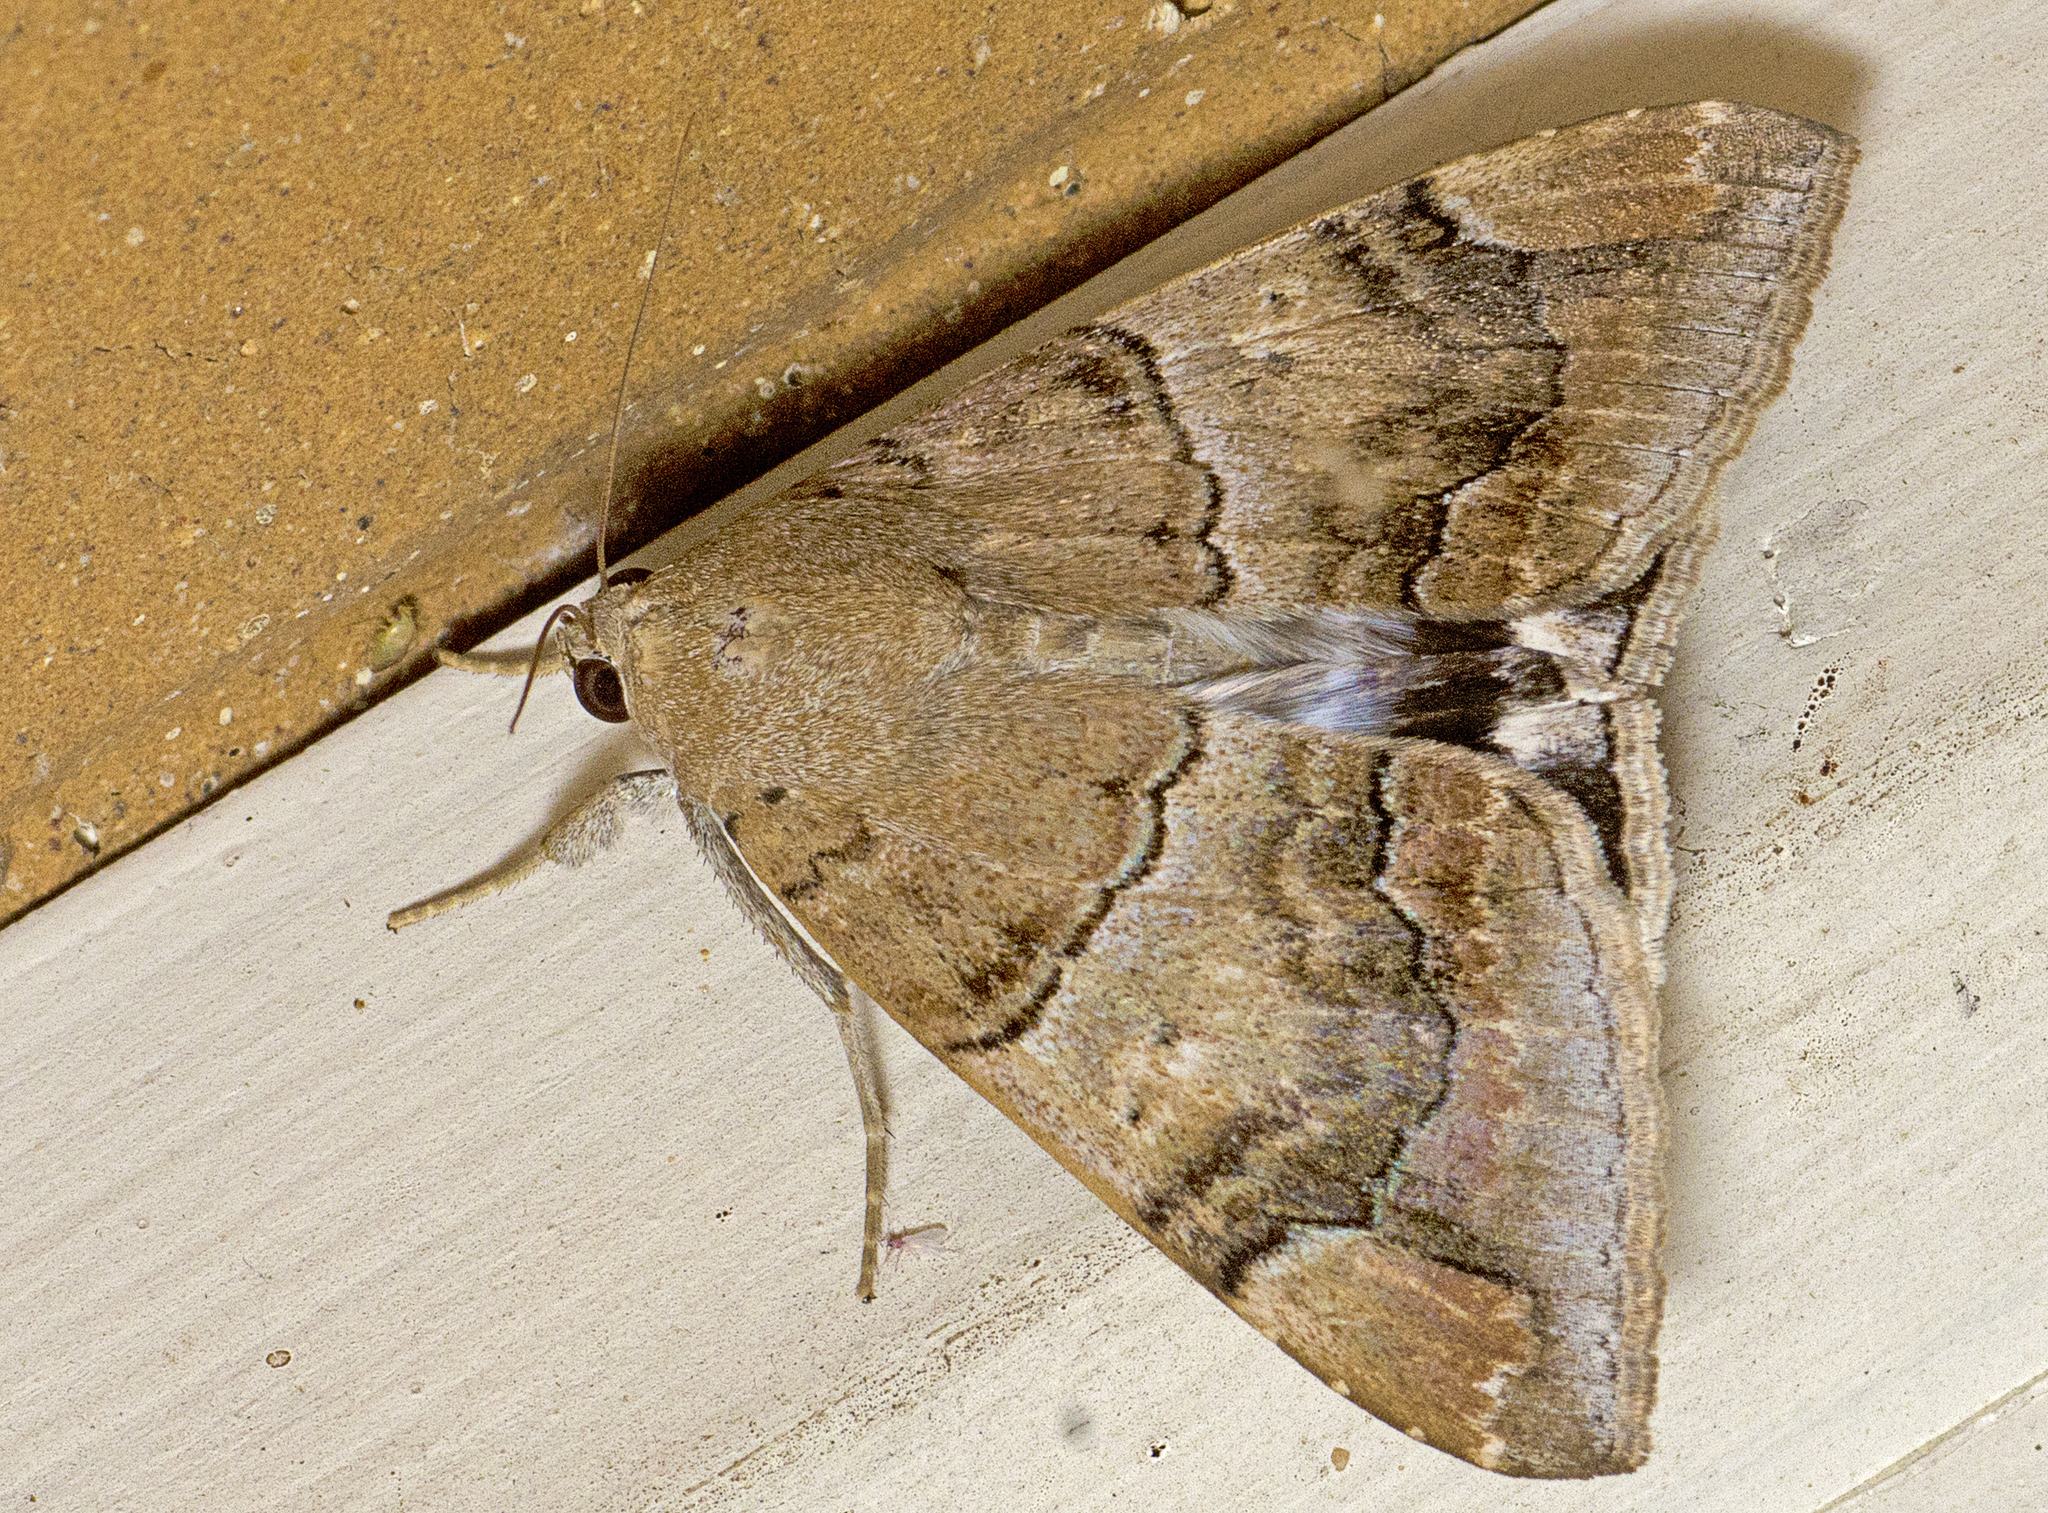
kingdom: Animalia
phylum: Arthropoda
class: Insecta
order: Lepidoptera
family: Erebidae
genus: Achaea
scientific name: Achaea janata
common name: Croton caterpillar
